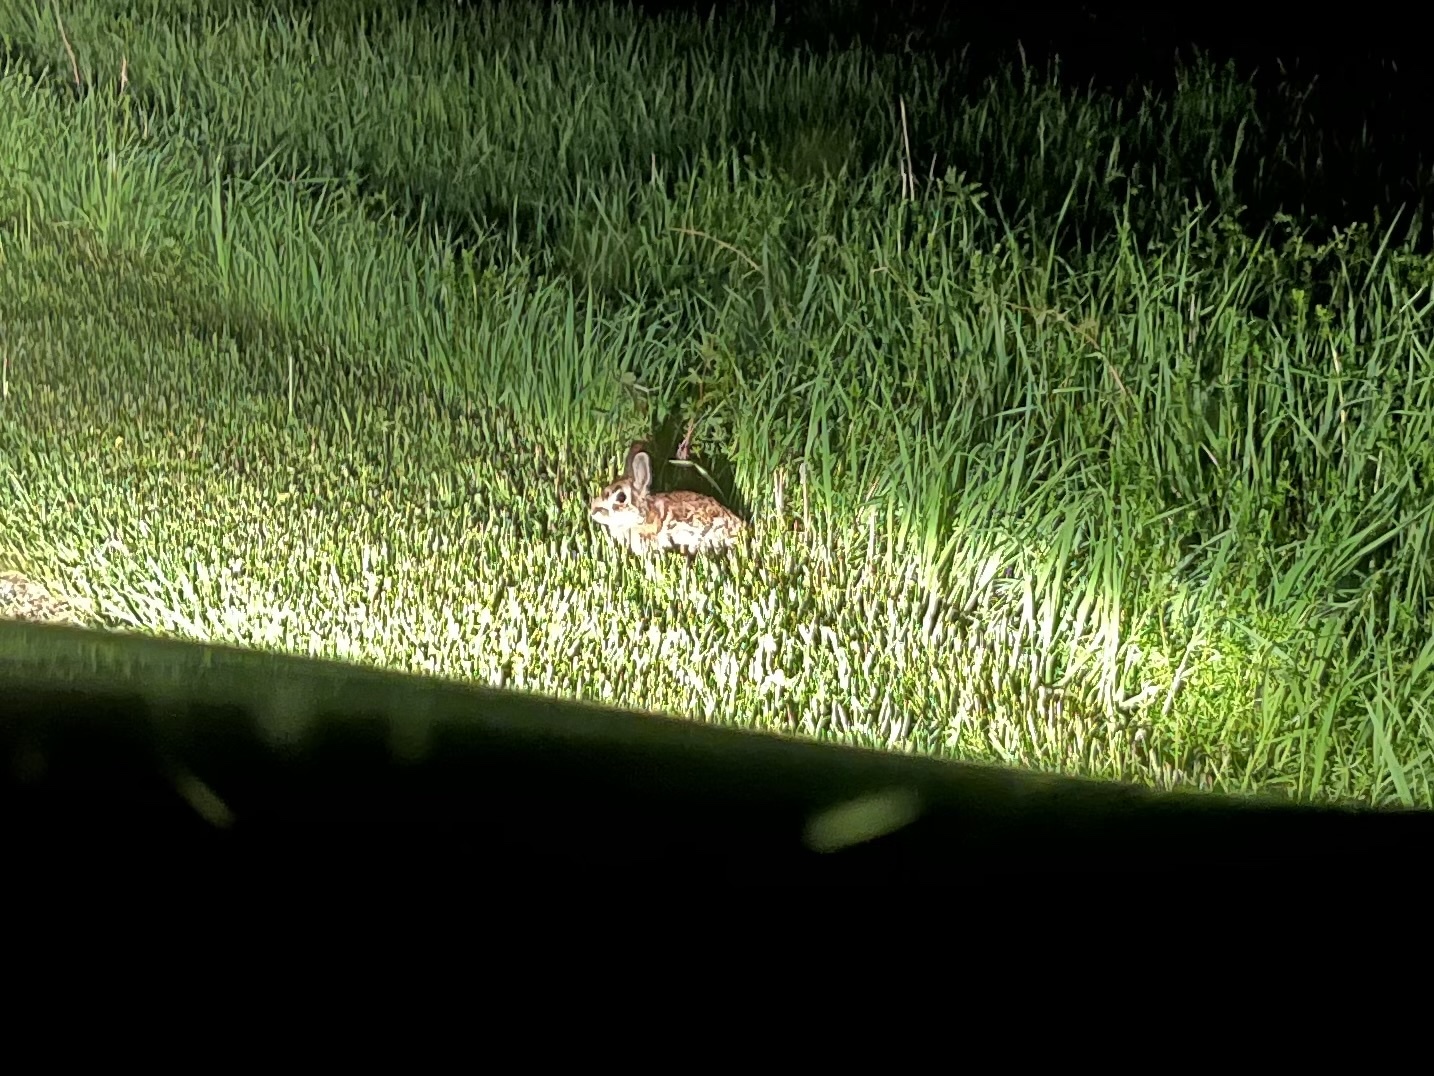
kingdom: Animalia
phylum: Chordata
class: Mammalia
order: Lagomorpha
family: Leporidae
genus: Sylvilagus
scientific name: Sylvilagus floridanus
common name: Eastern cottontail
